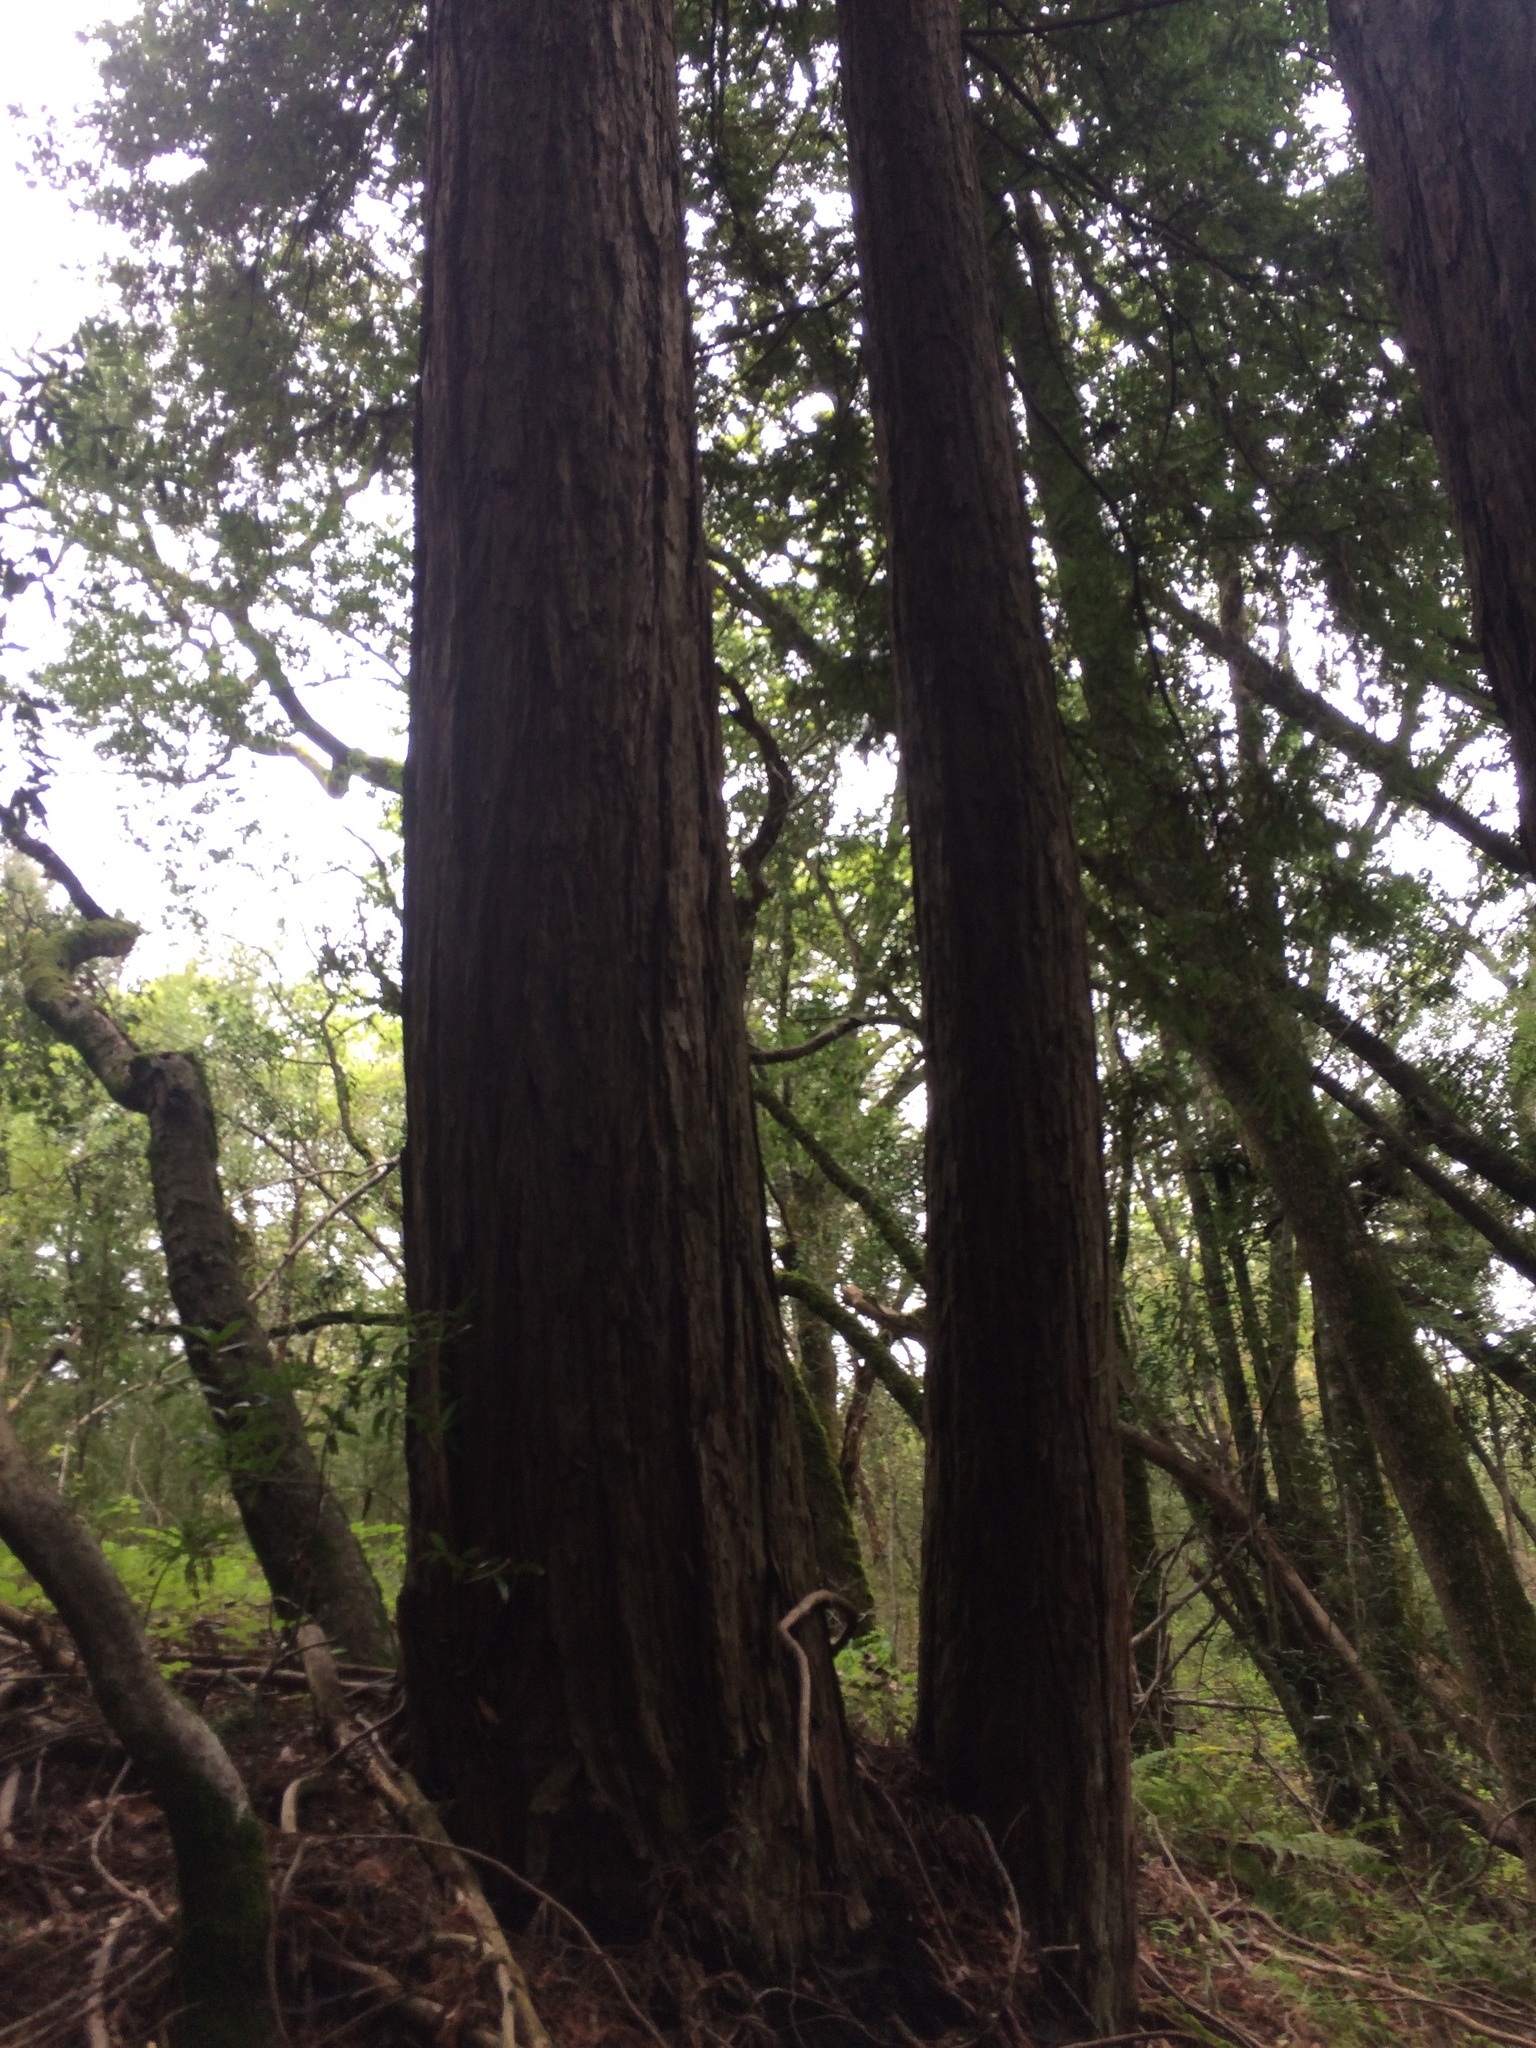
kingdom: Plantae
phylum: Tracheophyta
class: Pinopsida
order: Pinales
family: Cupressaceae
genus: Sequoia
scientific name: Sequoia sempervirens
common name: Coast redwood
